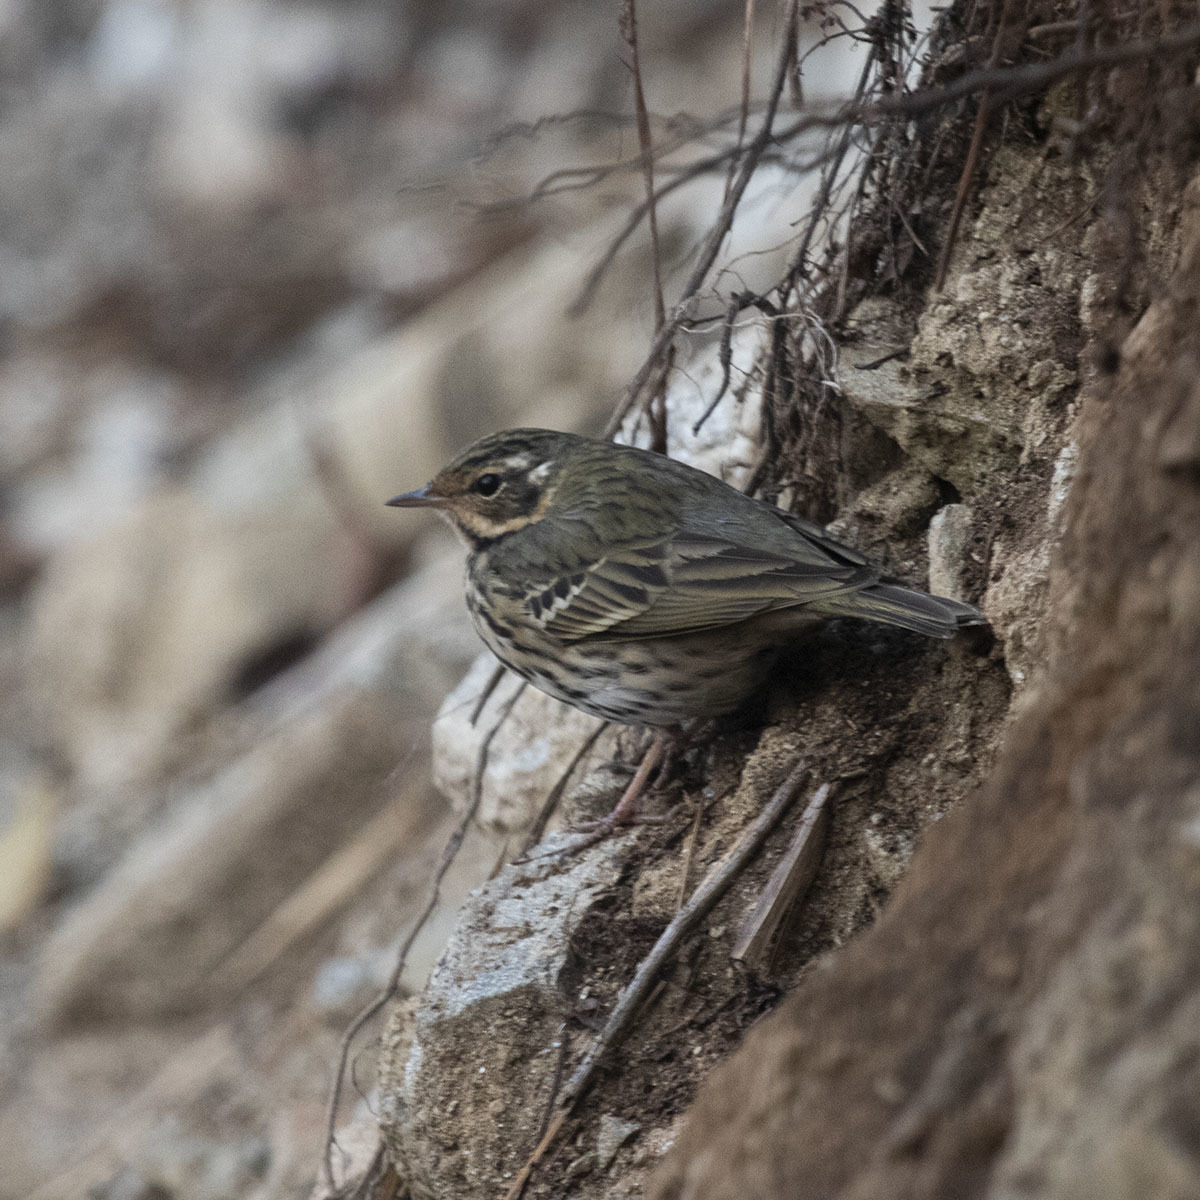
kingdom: Animalia
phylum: Chordata
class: Aves
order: Passeriformes
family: Motacillidae
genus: Anthus
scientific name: Anthus hodgsoni
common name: Olive-backed pipit
